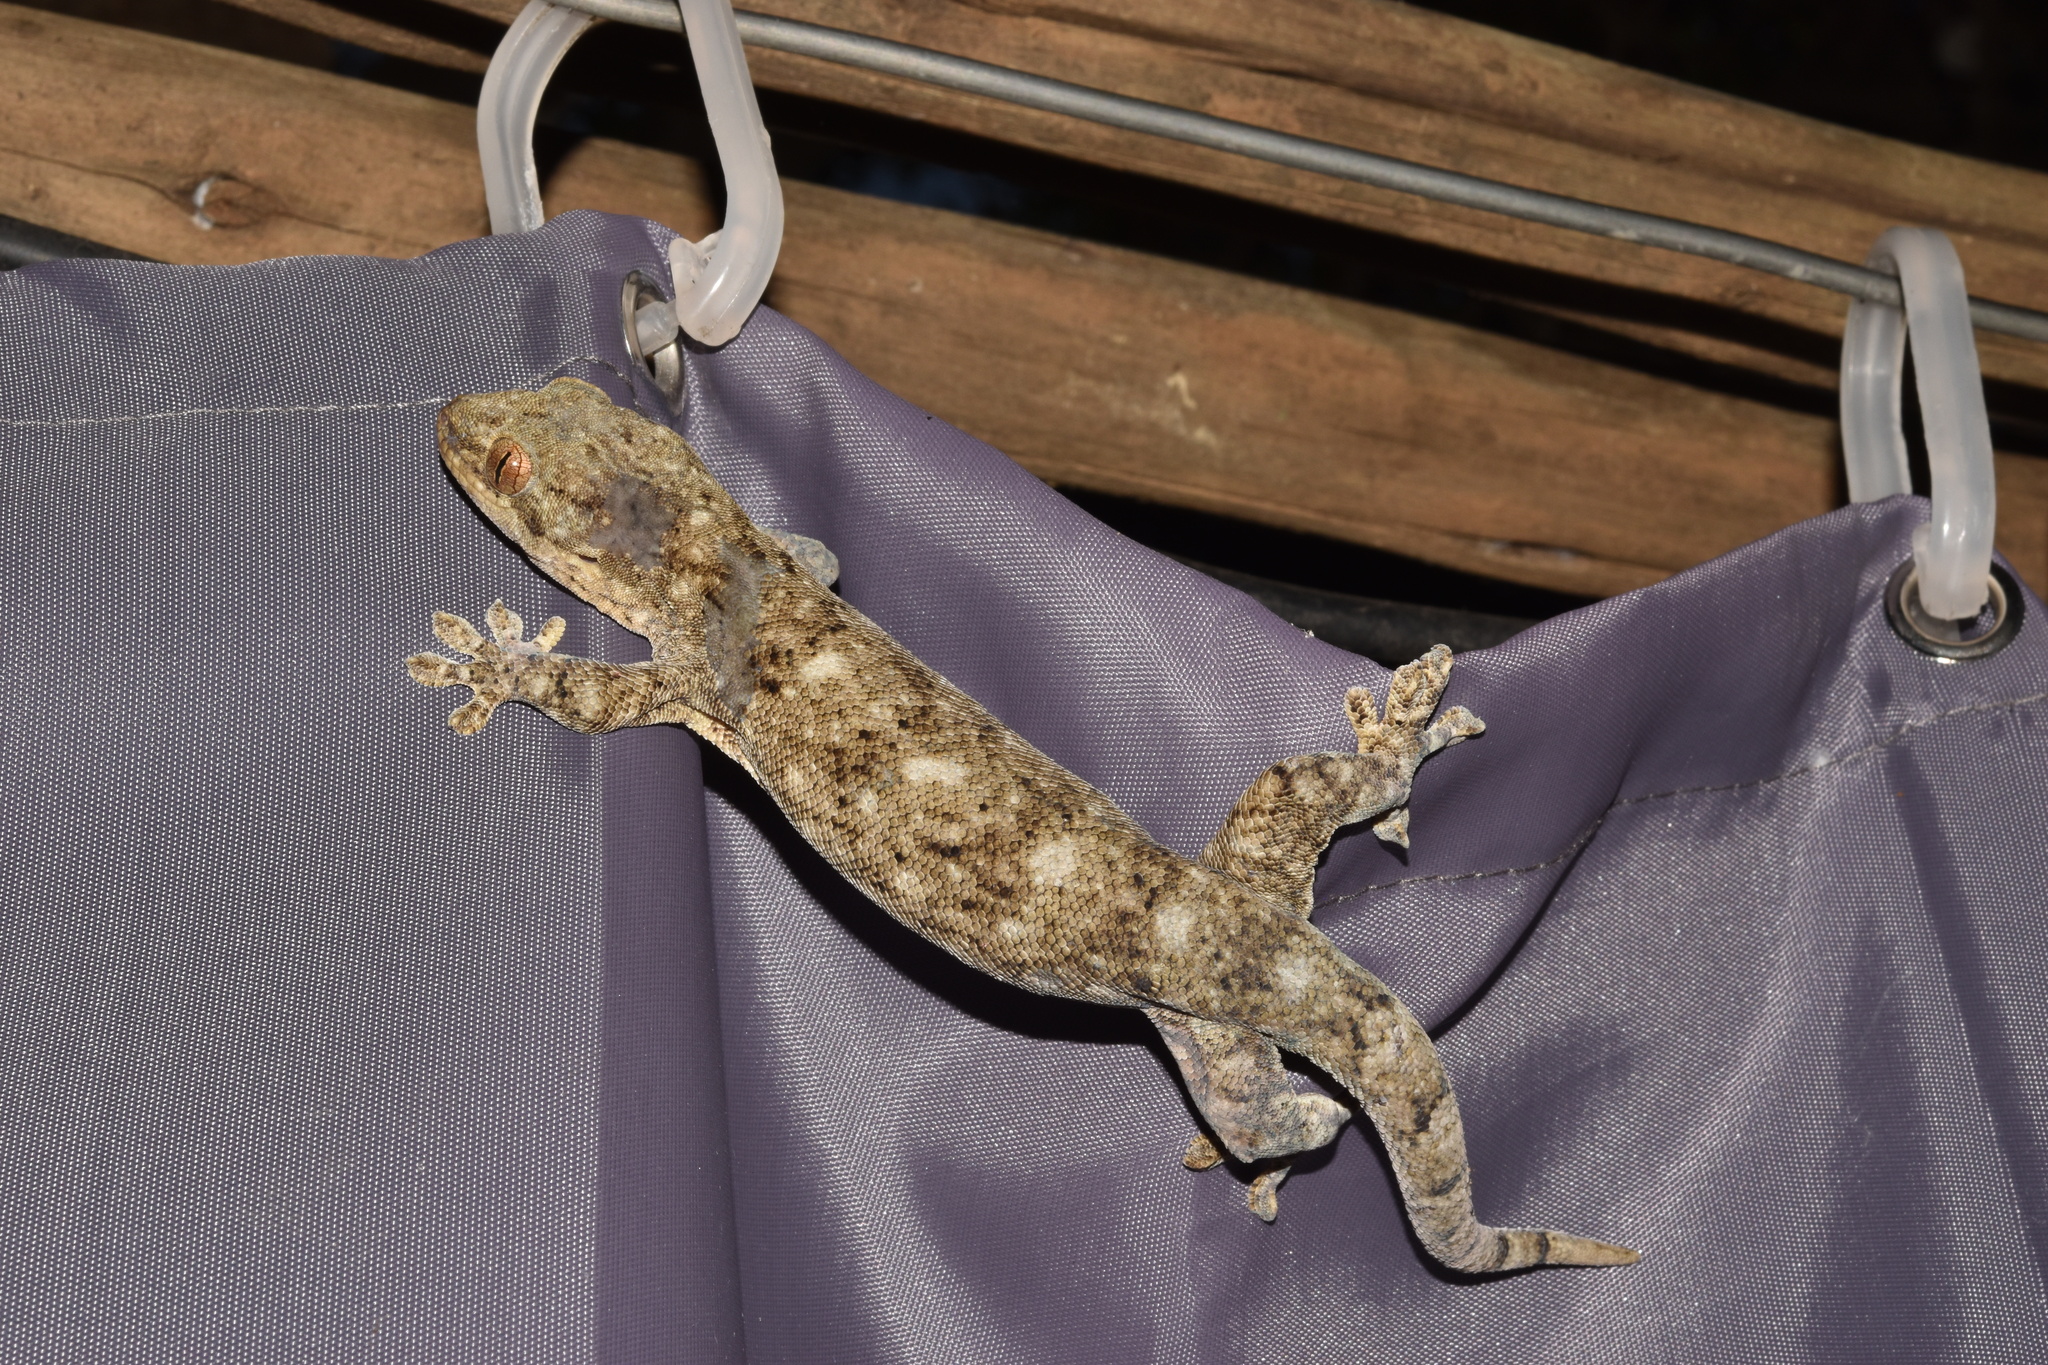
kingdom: Animalia
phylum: Chordata
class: Squamata
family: Gekkonidae
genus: Homopholis
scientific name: Homopholis walbergii
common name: Wahlberg’s velvet gecko
